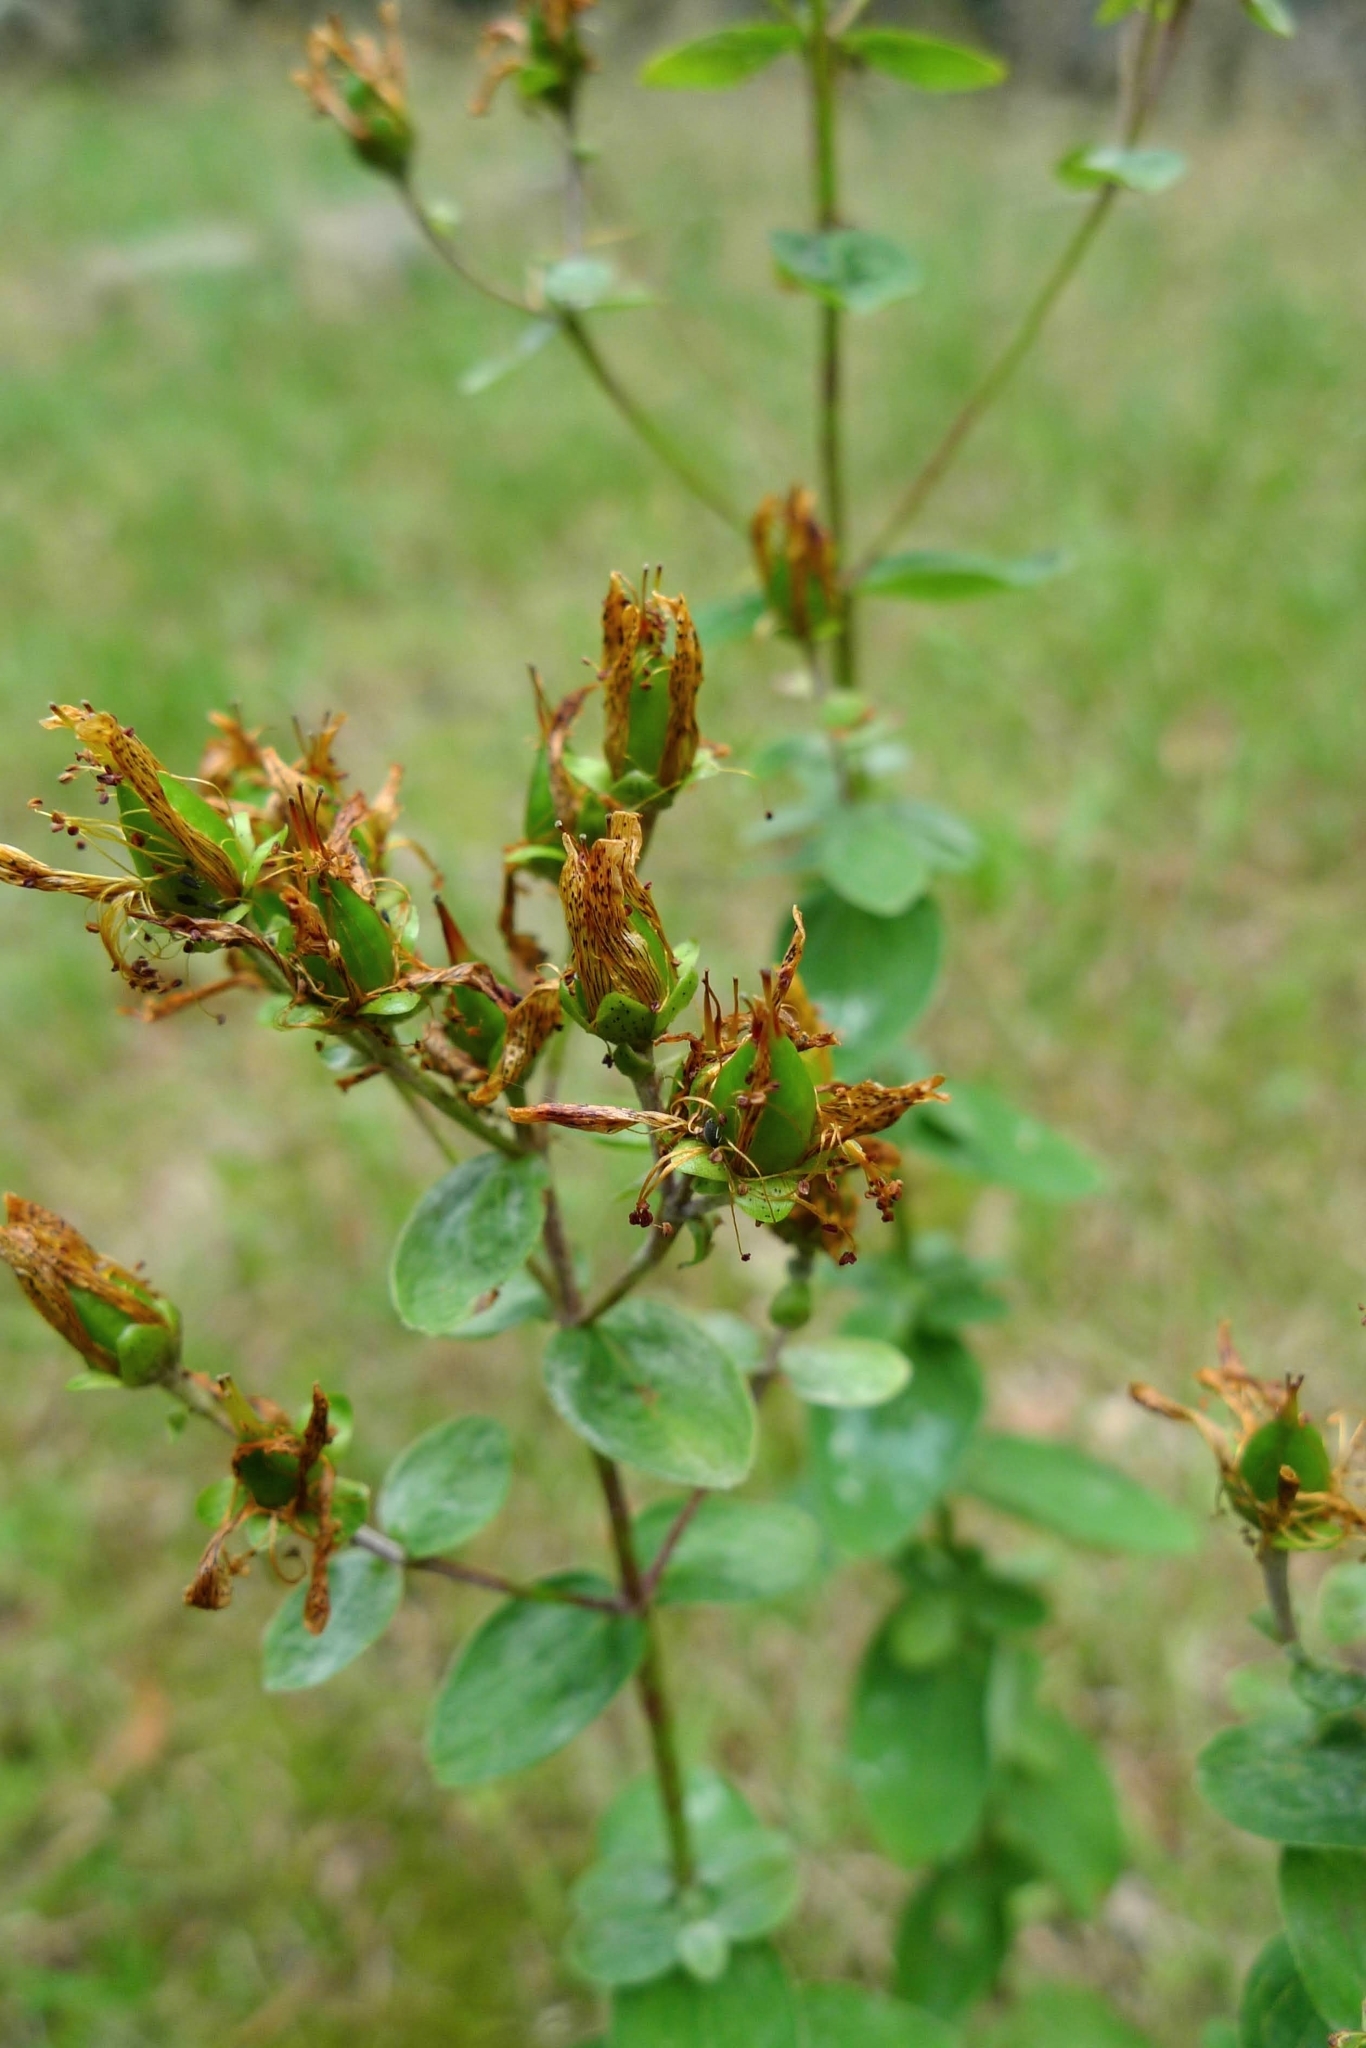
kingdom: Plantae
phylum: Tracheophyta
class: Magnoliopsida
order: Malpighiales
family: Hypericaceae
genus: Hypericum
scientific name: Hypericum maculatum
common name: Imperforate st. john's-wort
